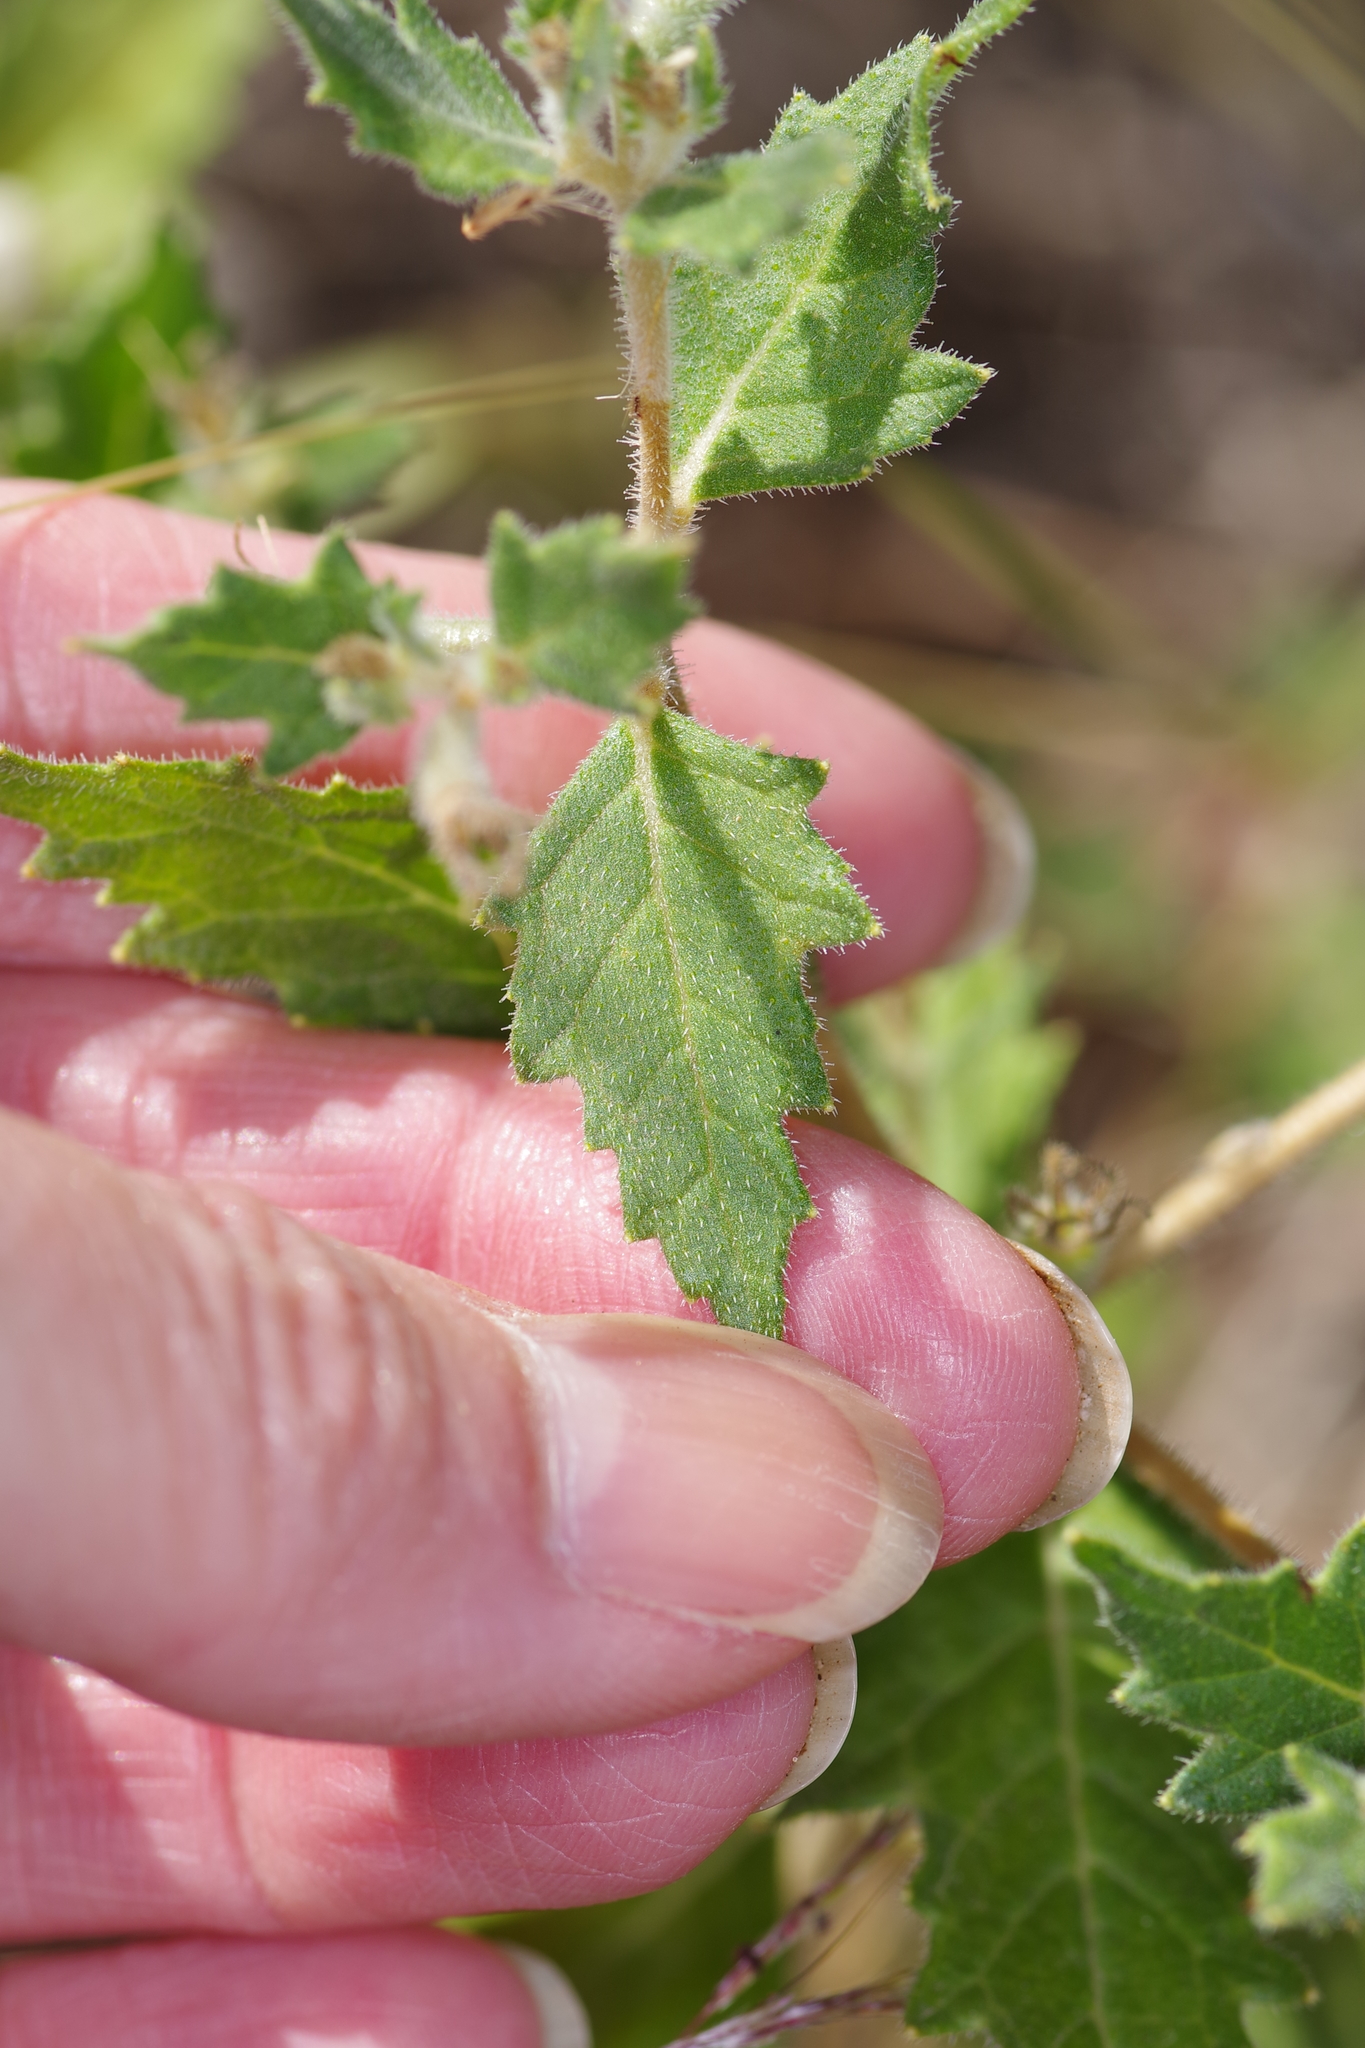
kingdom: Plantae
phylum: Tracheophyta
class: Magnoliopsida
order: Cornales
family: Loasaceae
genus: Mentzelia
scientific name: Mentzelia oligosperma
